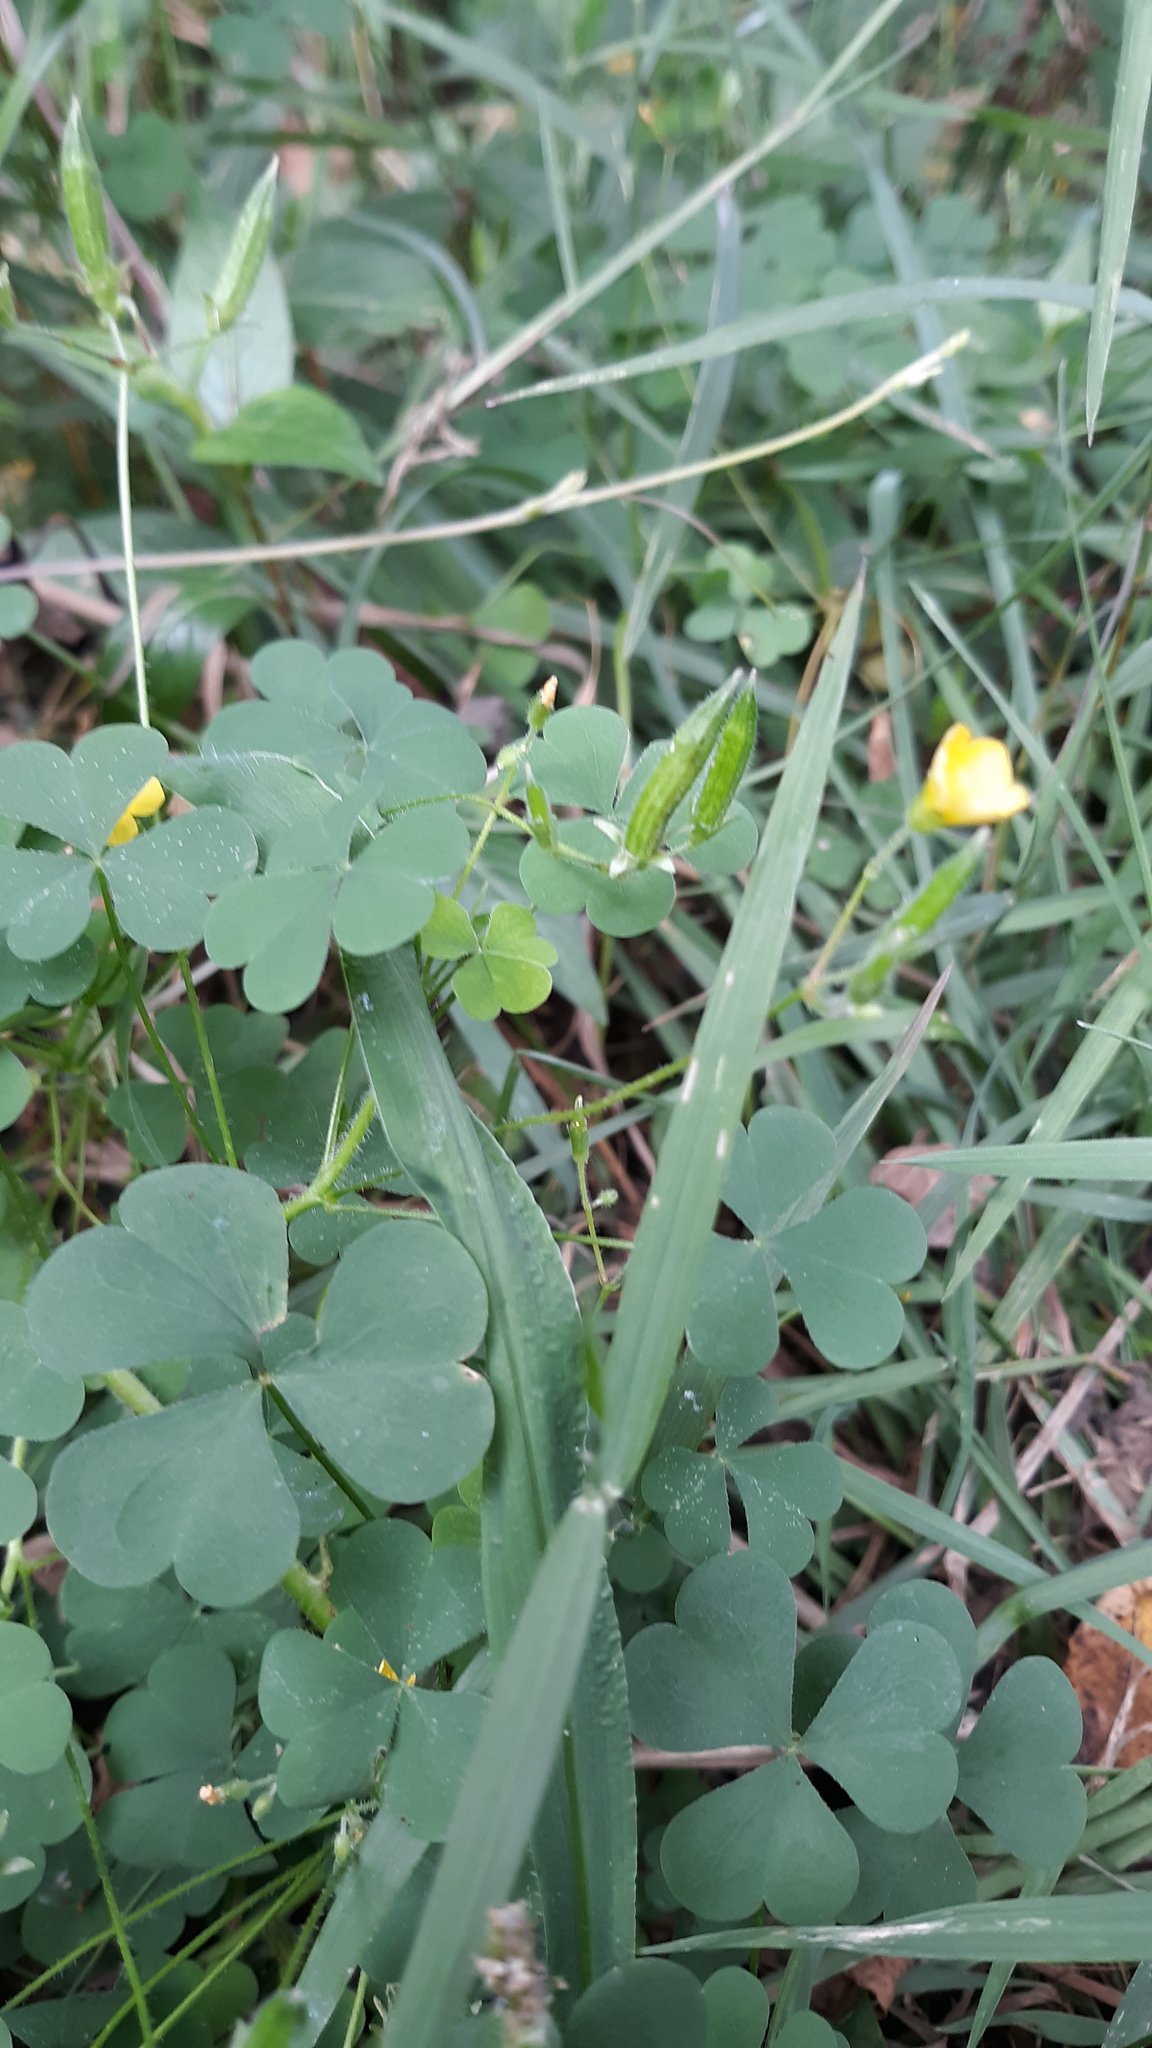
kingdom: Plantae
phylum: Tracheophyta
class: Magnoliopsida
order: Oxalidales
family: Oxalidaceae
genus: Oxalis
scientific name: Oxalis stricta
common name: Upright yellow-sorrel
